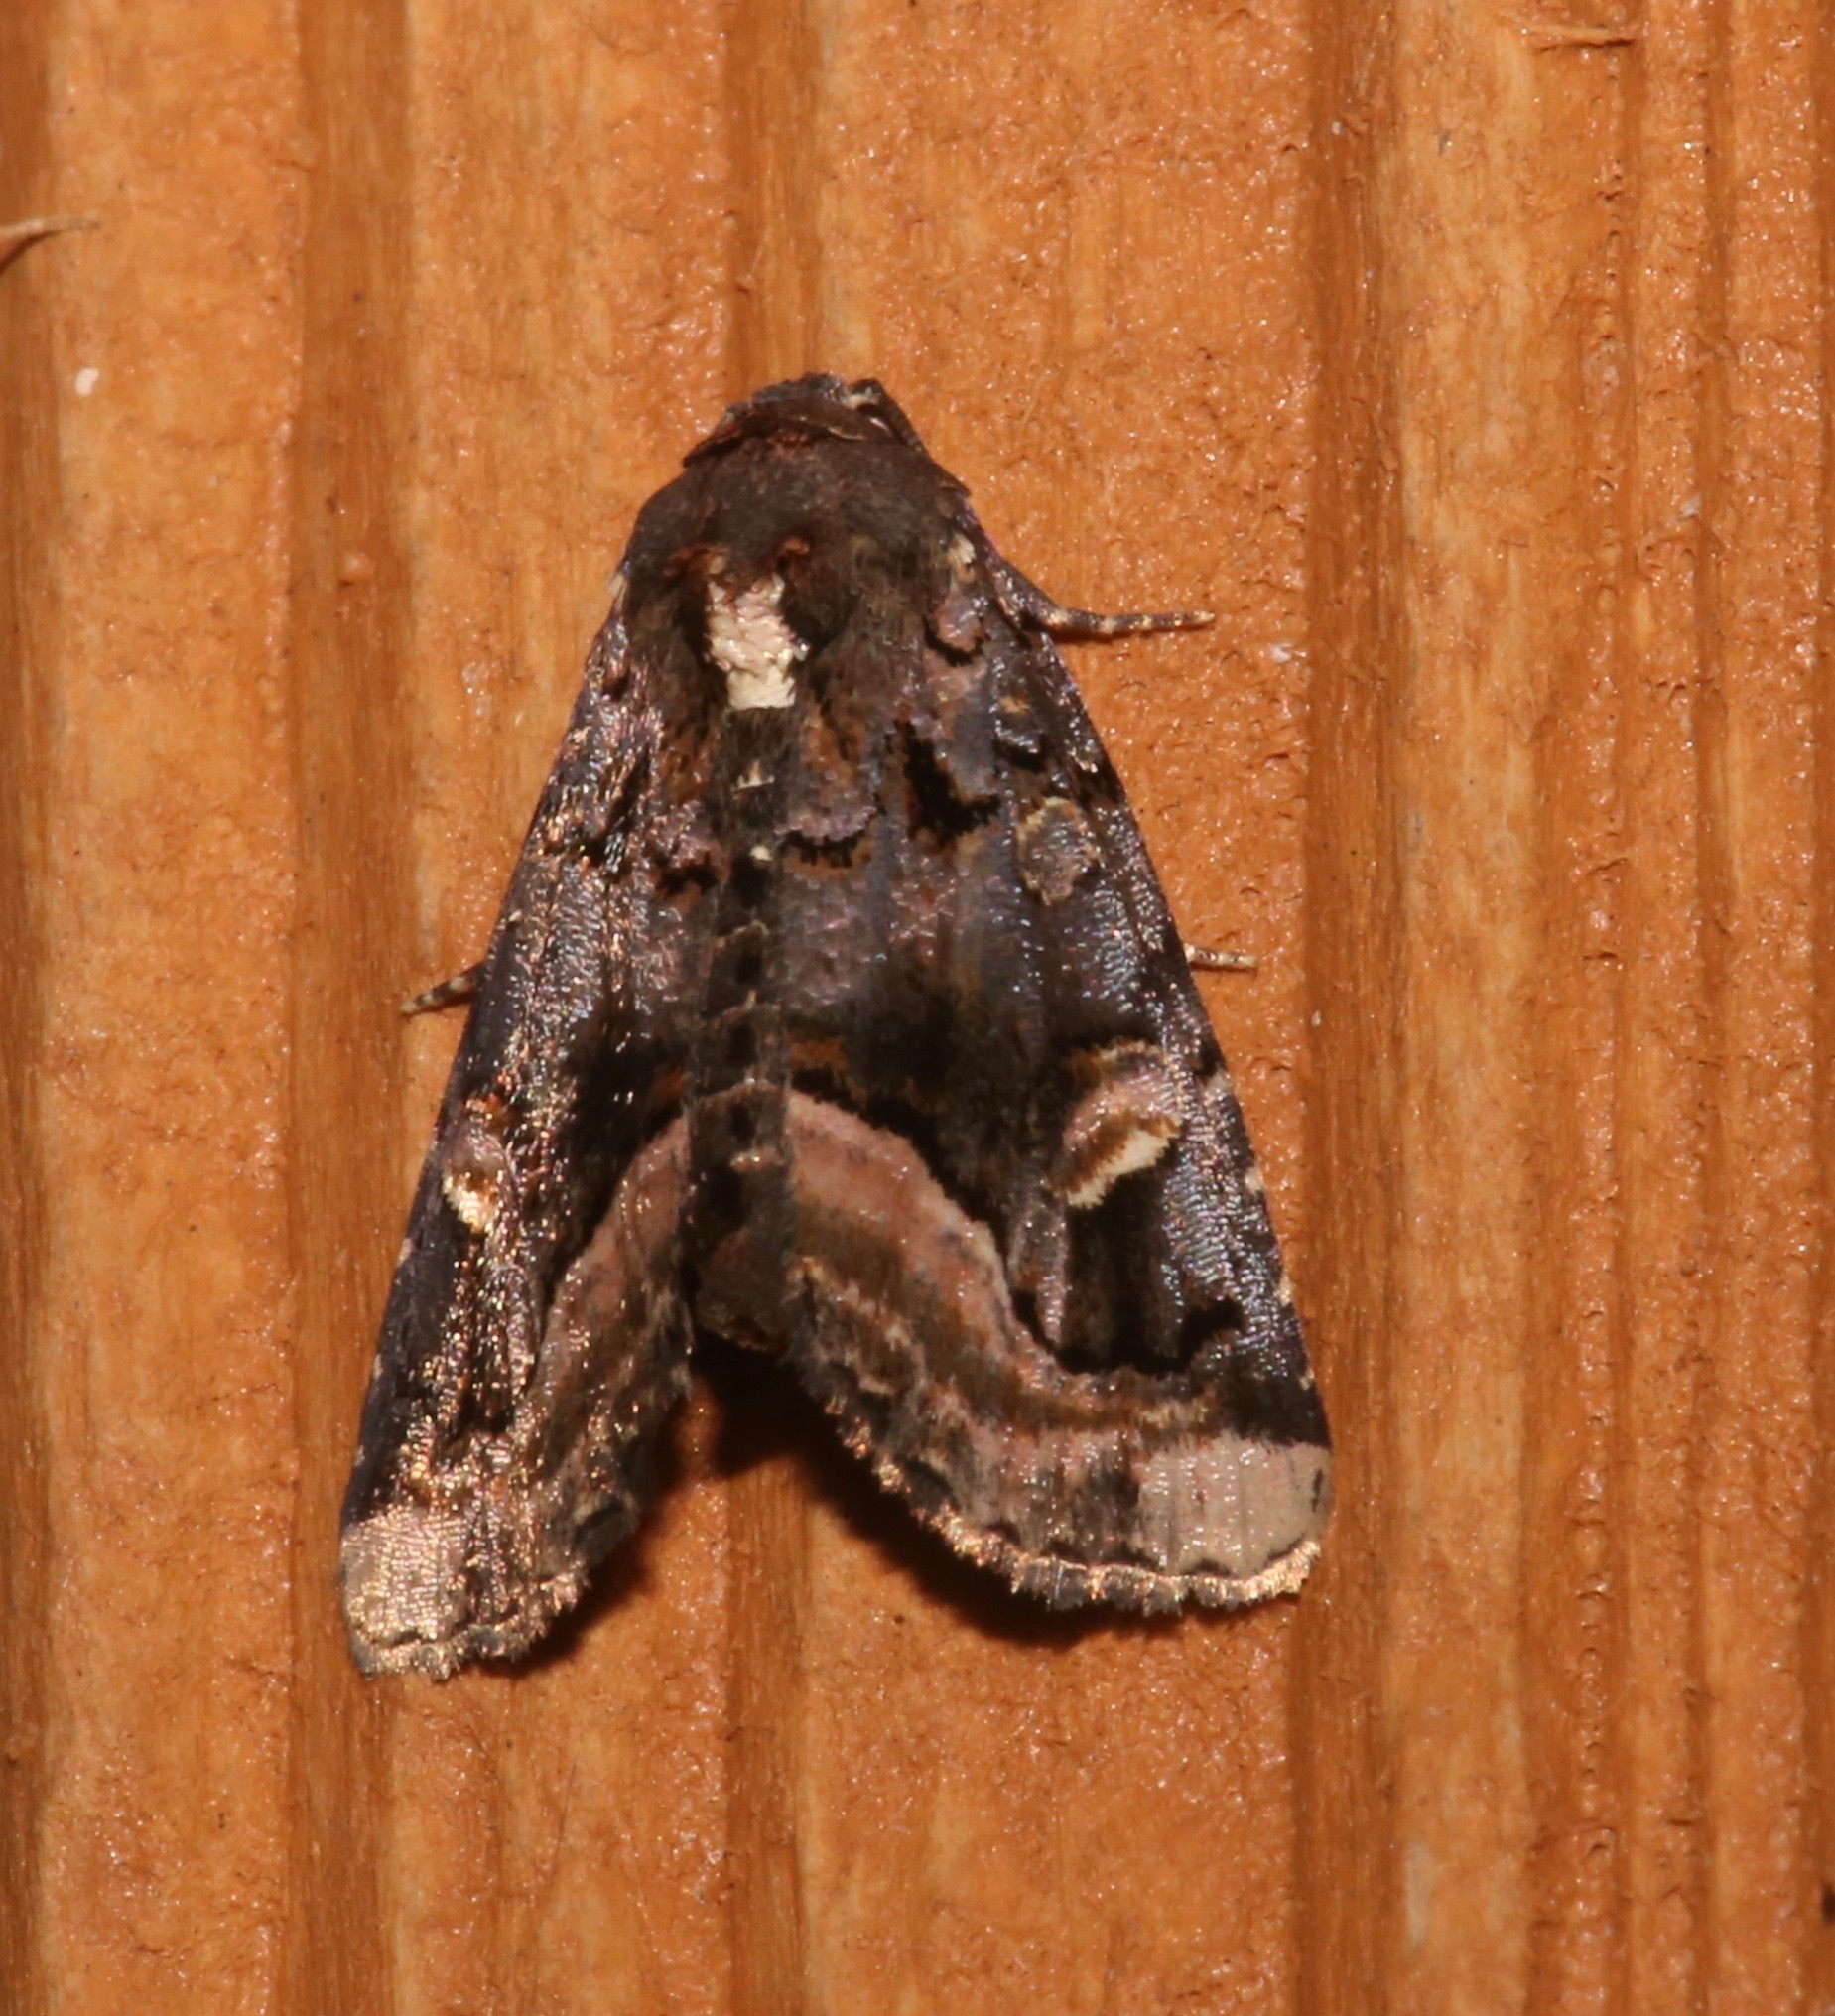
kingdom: Animalia
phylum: Arthropoda
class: Insecta
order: Lepidoptera
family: Noctuidae
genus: Homophoberia
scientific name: Homophoberia apicosa
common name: Black wedge-spot
